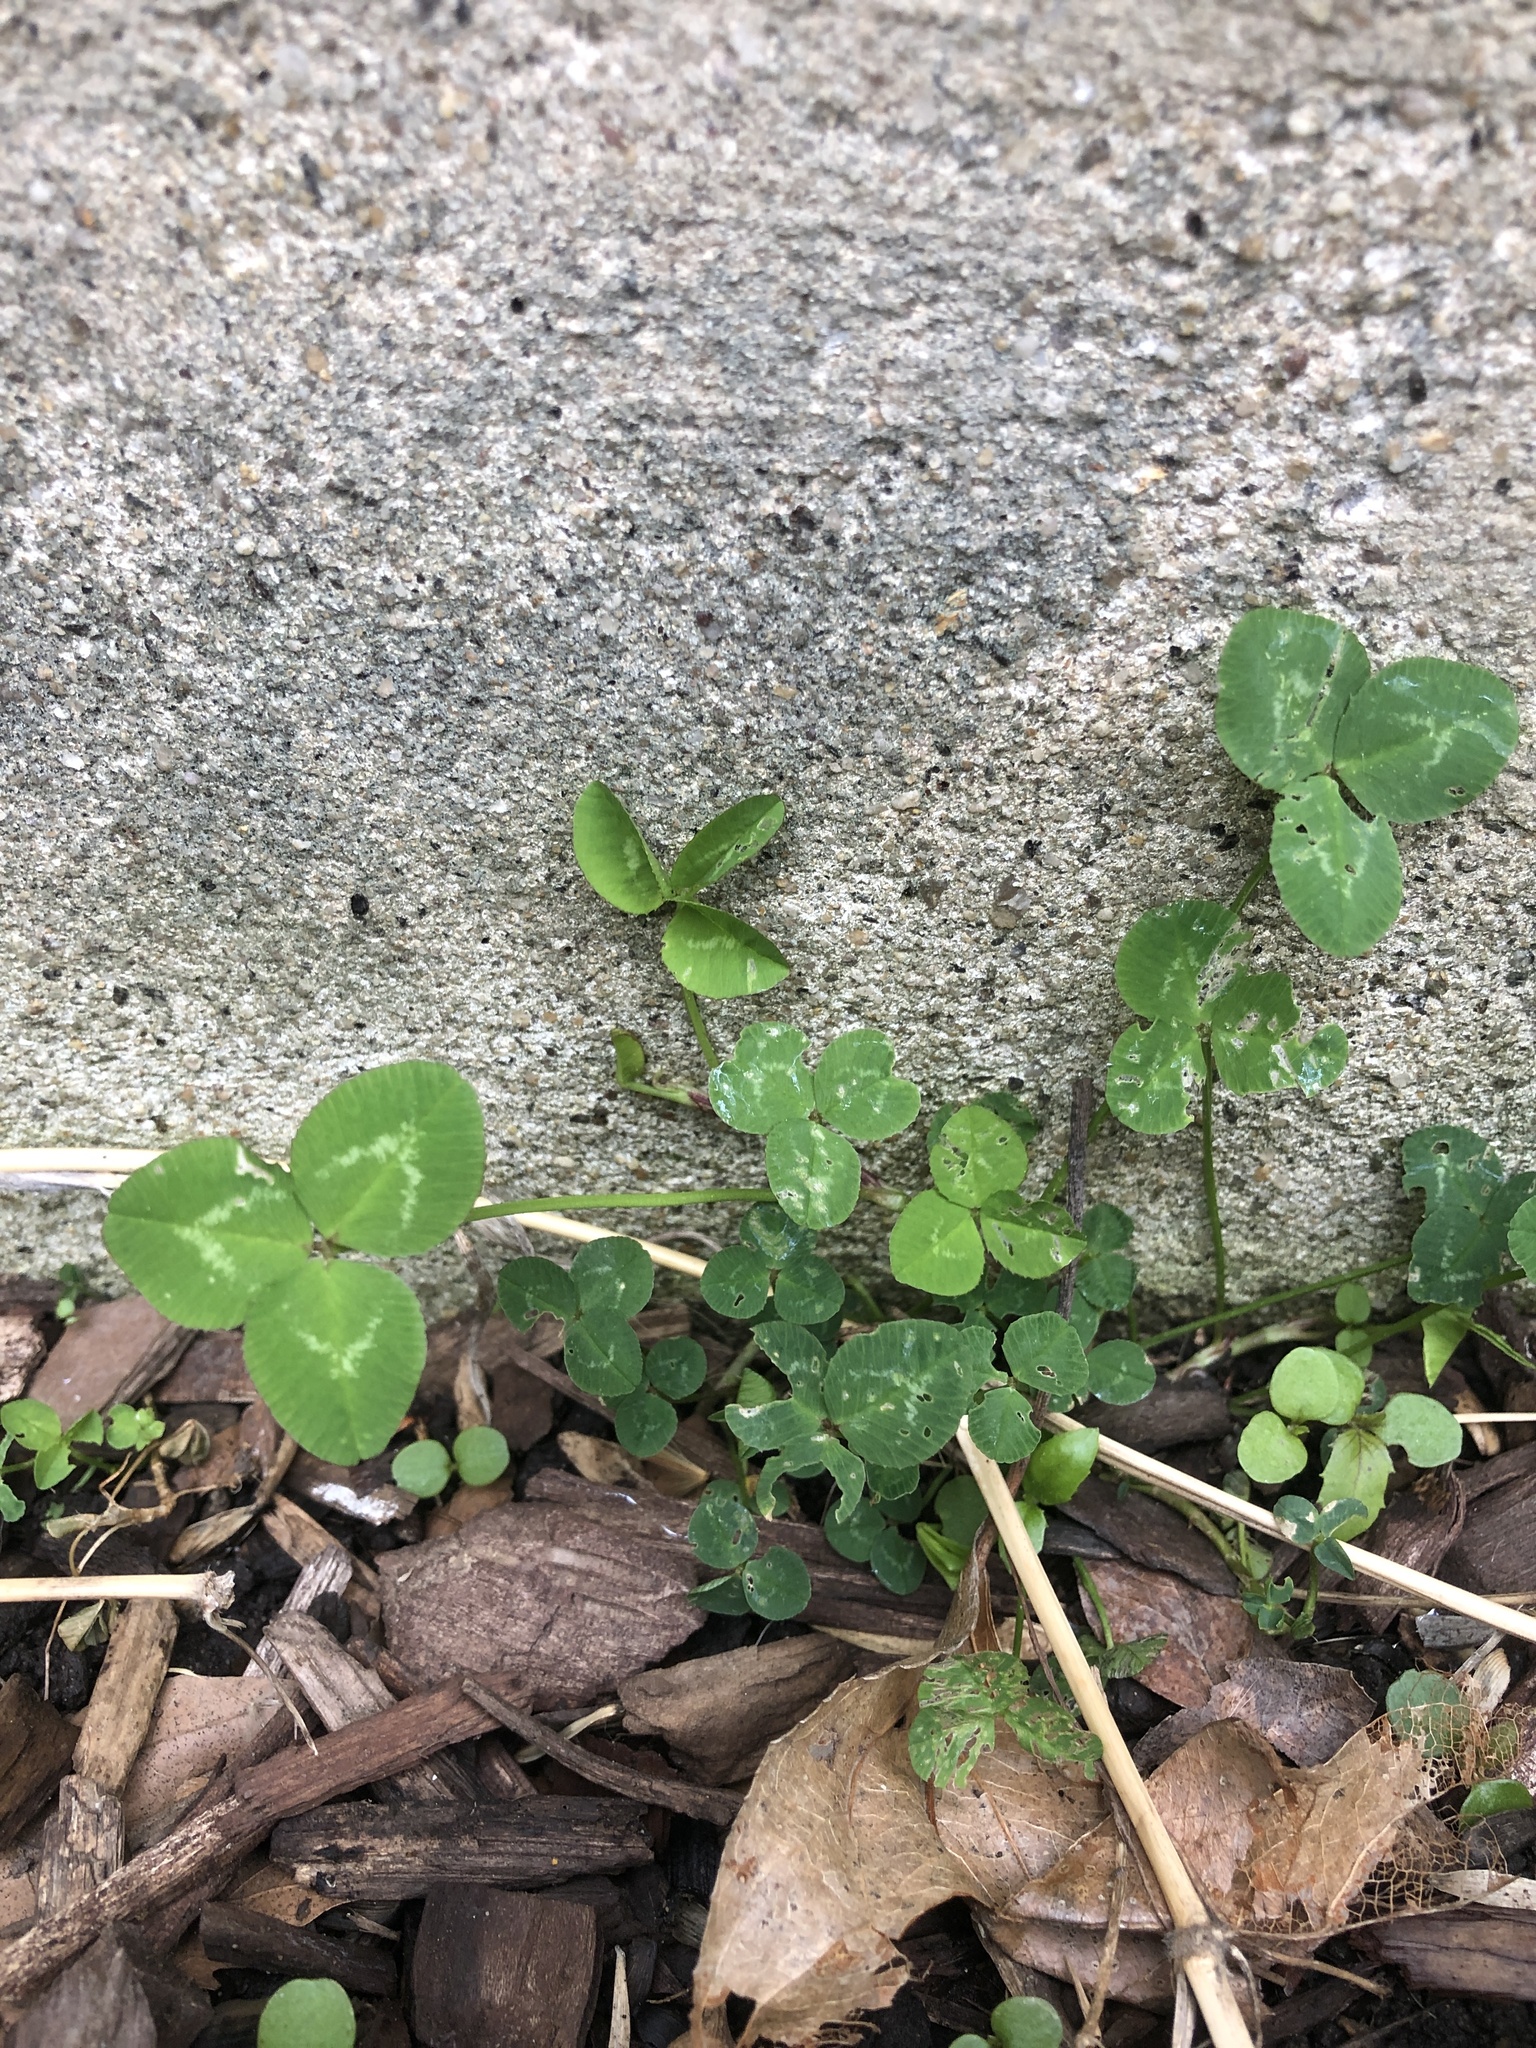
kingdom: Plantae
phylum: Tracheophyta
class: Magnoliopsida
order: Fabales
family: Fabaceae
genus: Trifolium
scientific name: Trifolium repens
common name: White clover
